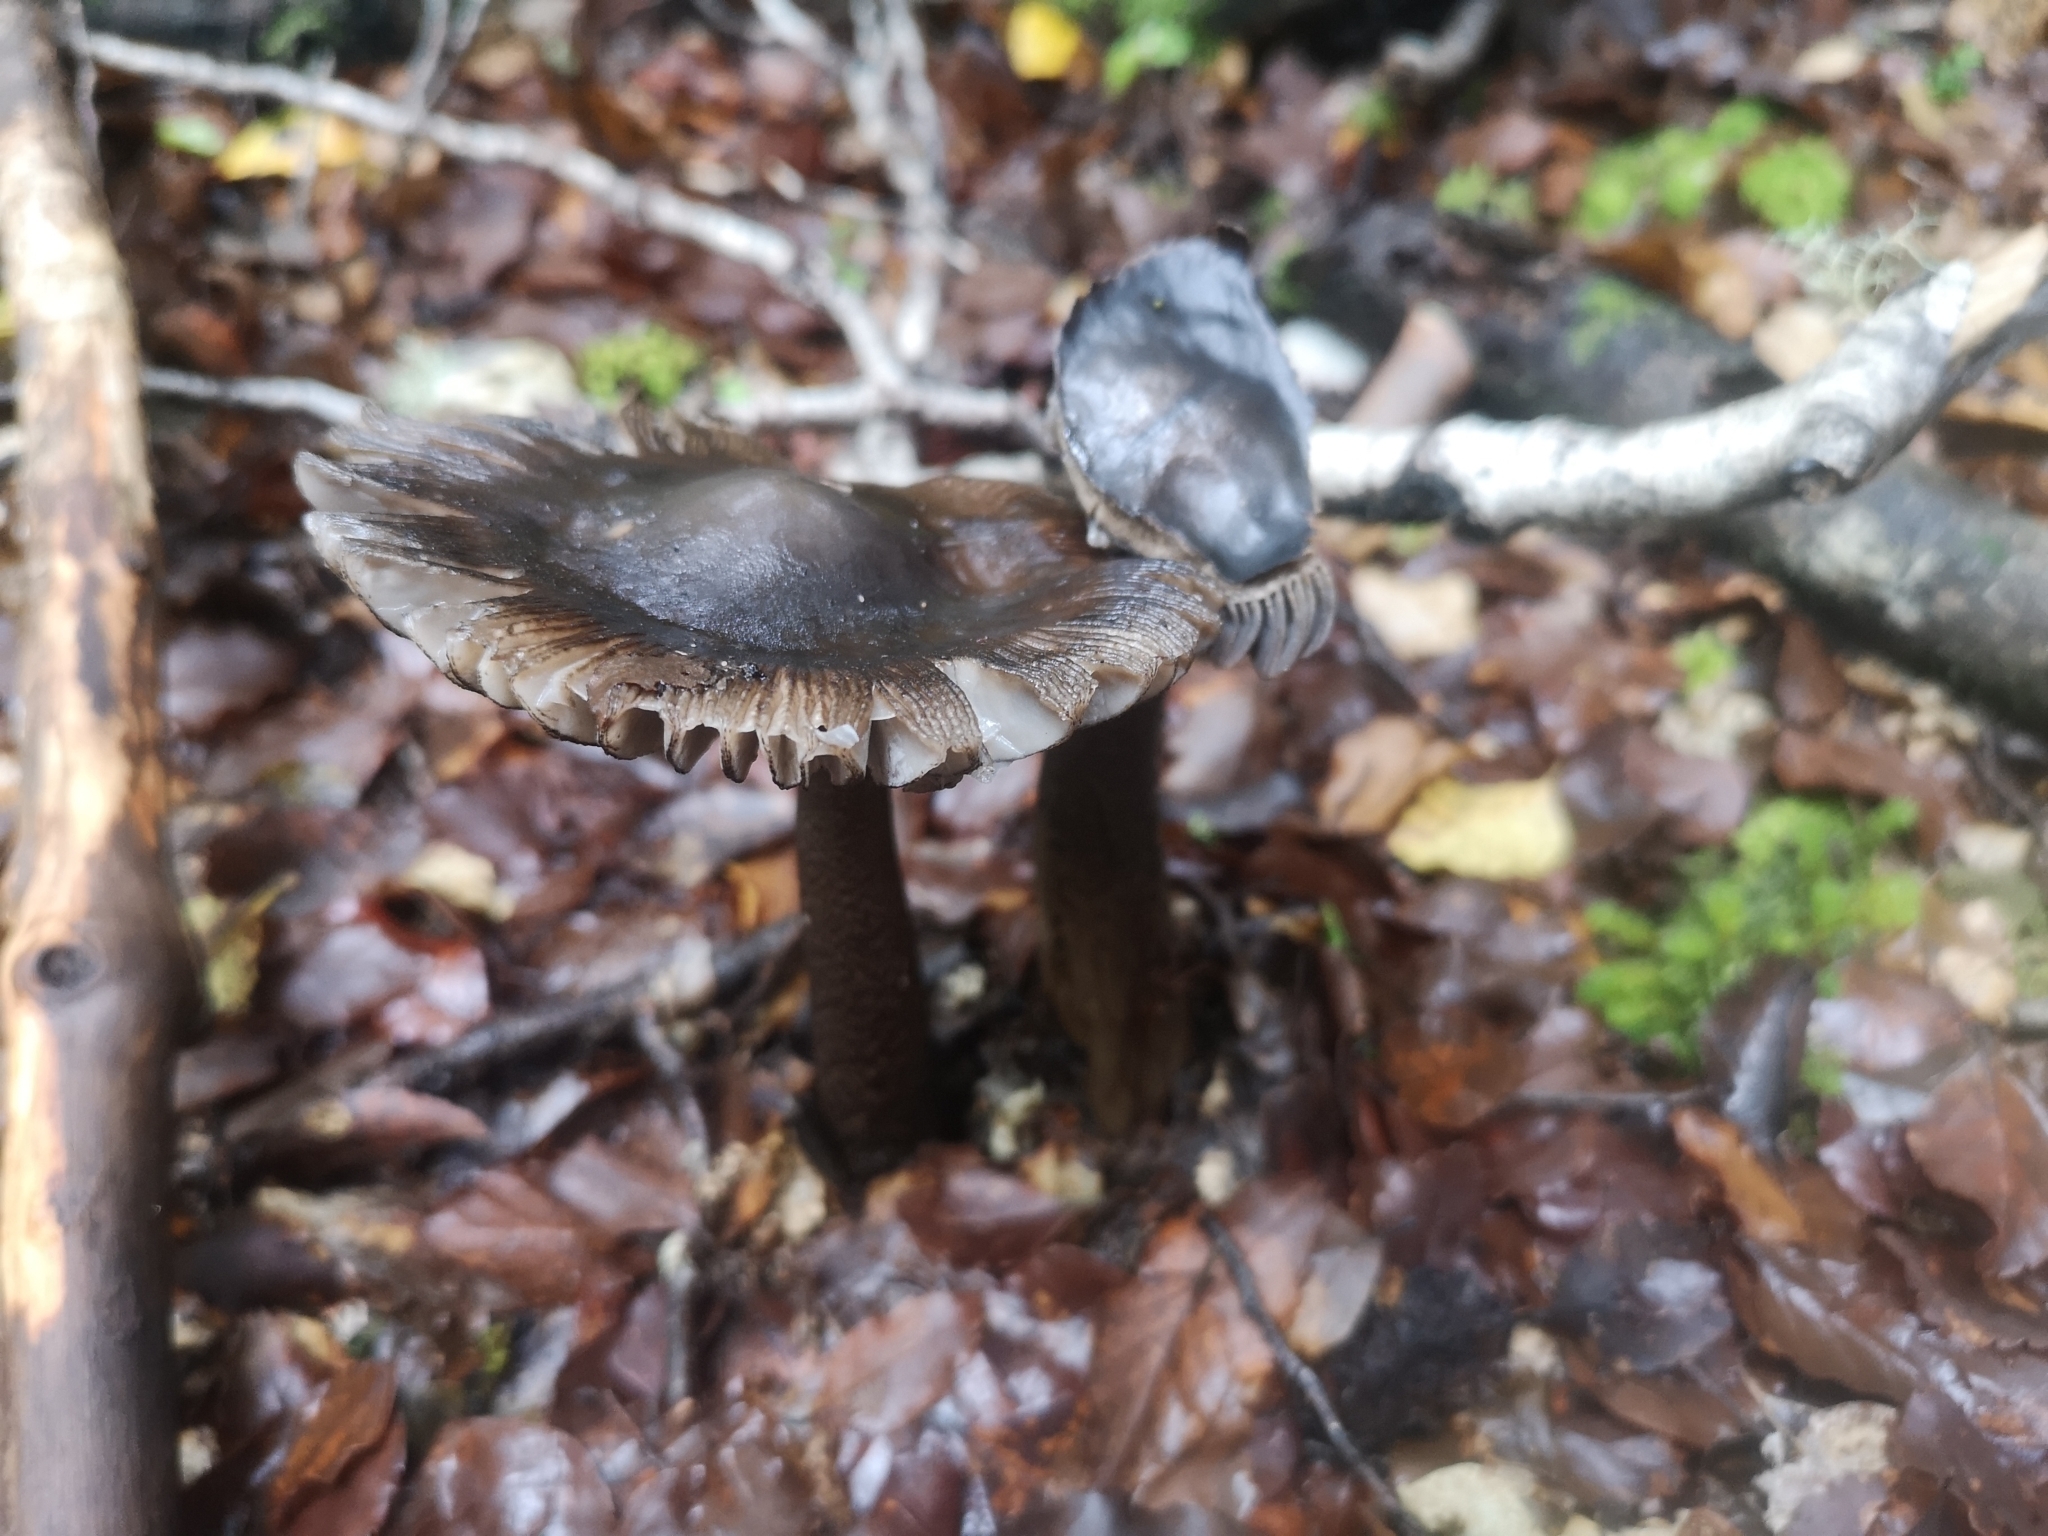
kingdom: Fungi
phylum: Basidiomycota
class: Agaricomycetes
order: Agaricales
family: Amanitaceae
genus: Amanita
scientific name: Amanita pekeoides
